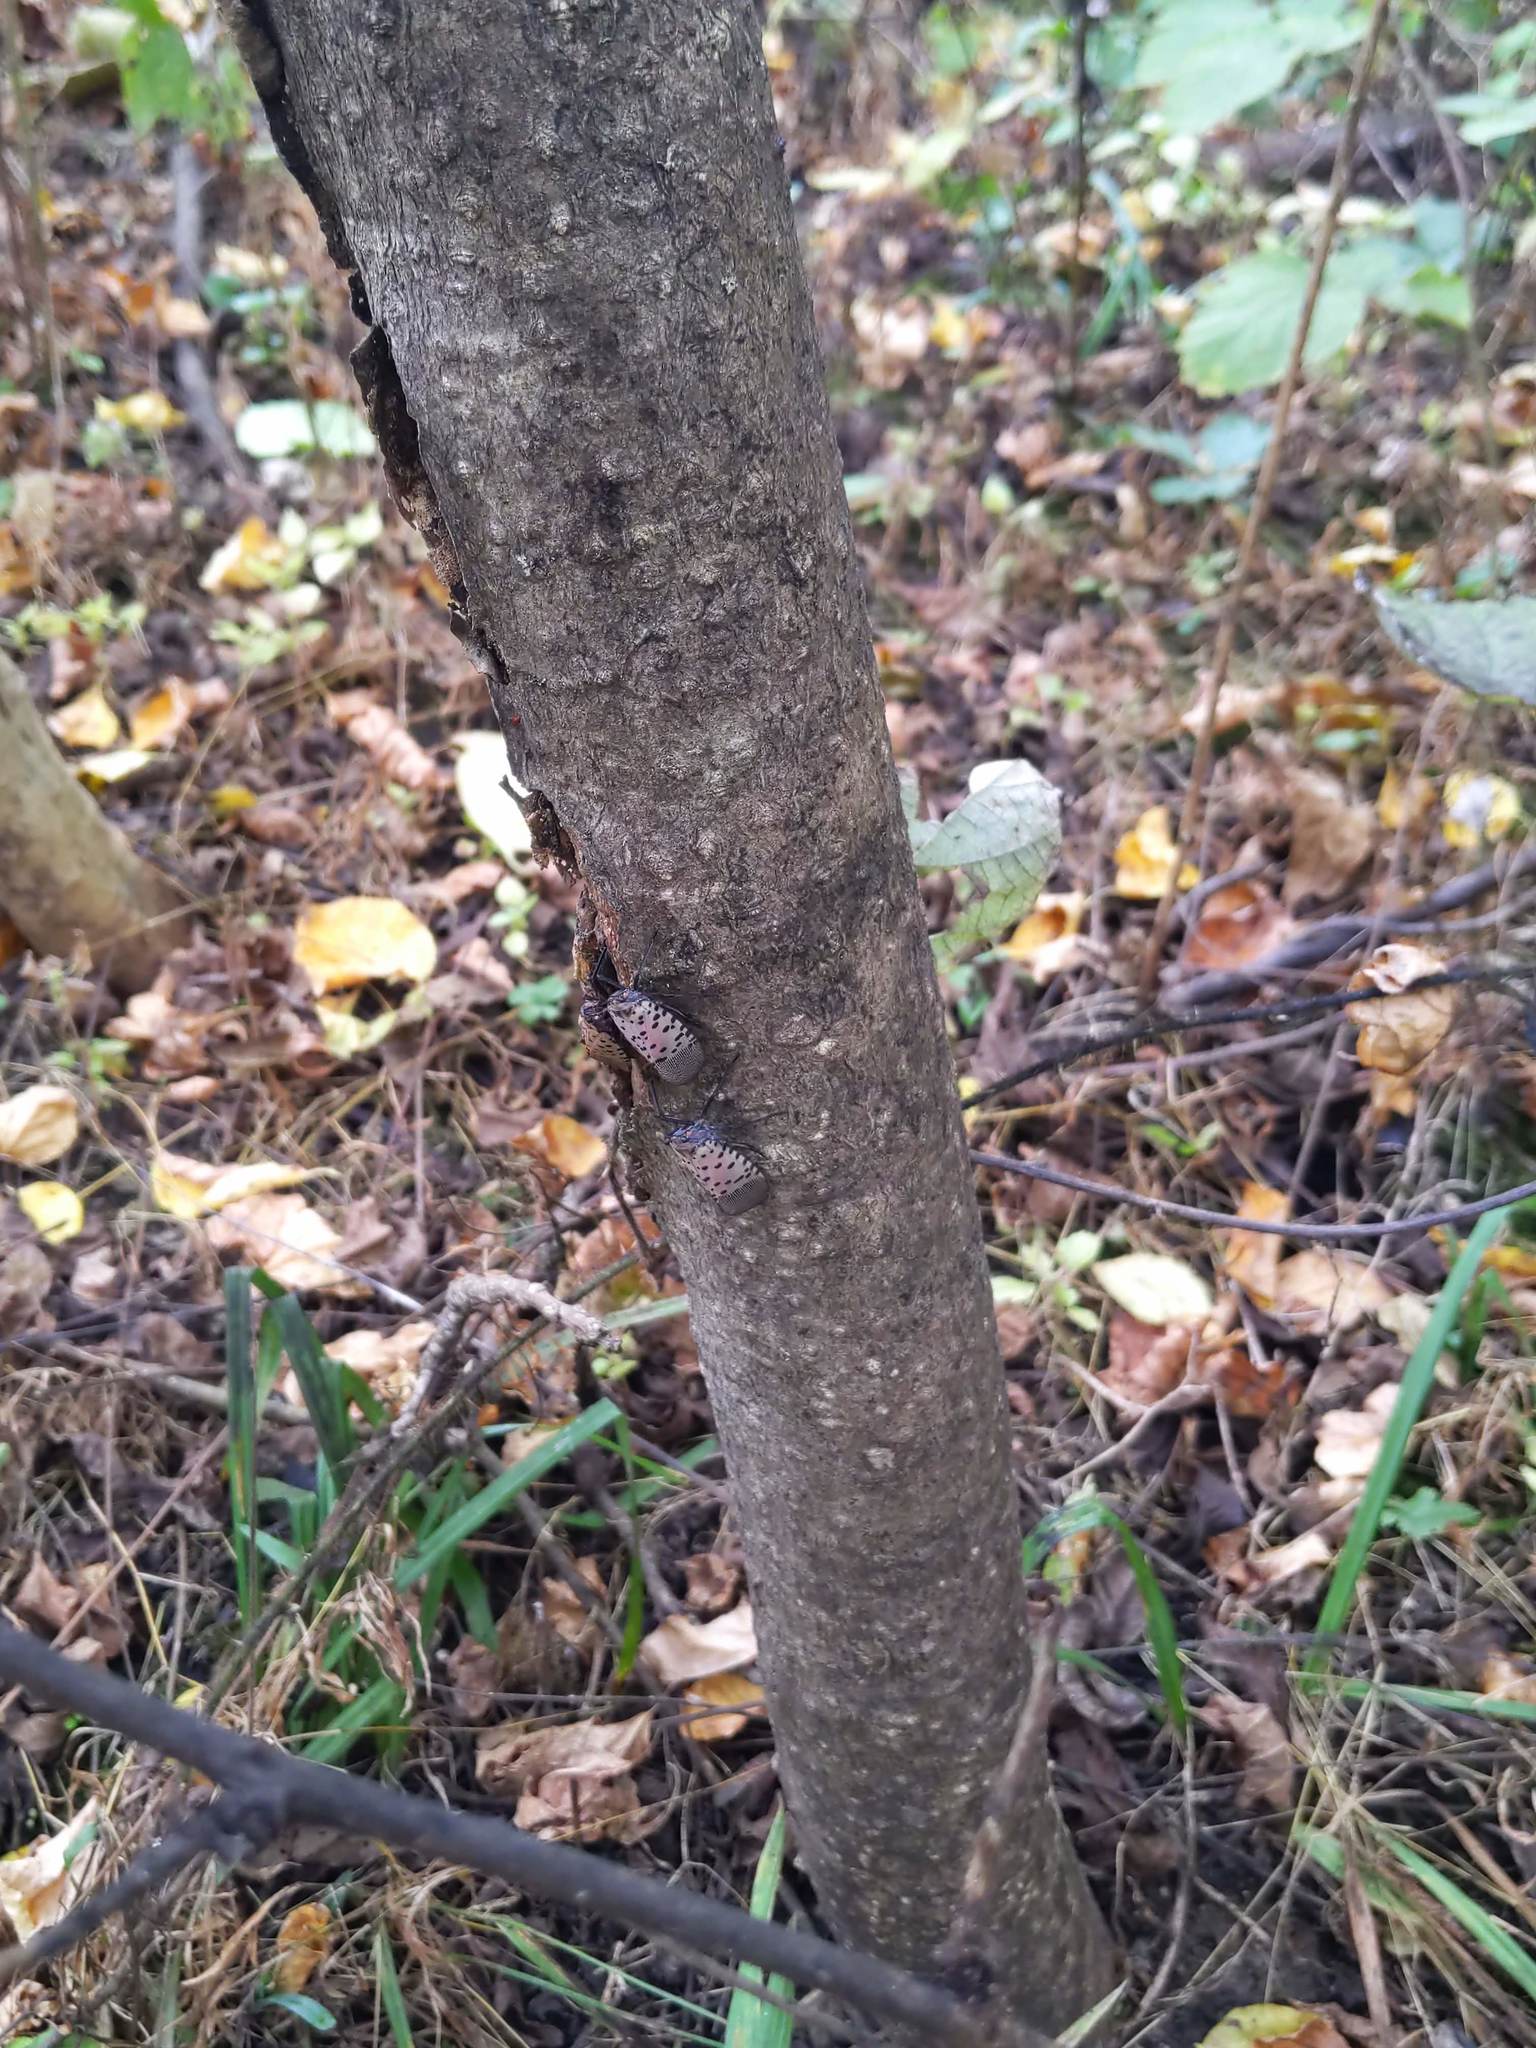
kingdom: Animalia
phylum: Arthropoda
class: Insecta
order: Hemiptera
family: Fulgoridae
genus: Lycorma
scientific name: Lycorma delicatula
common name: Spotted lanternfly
